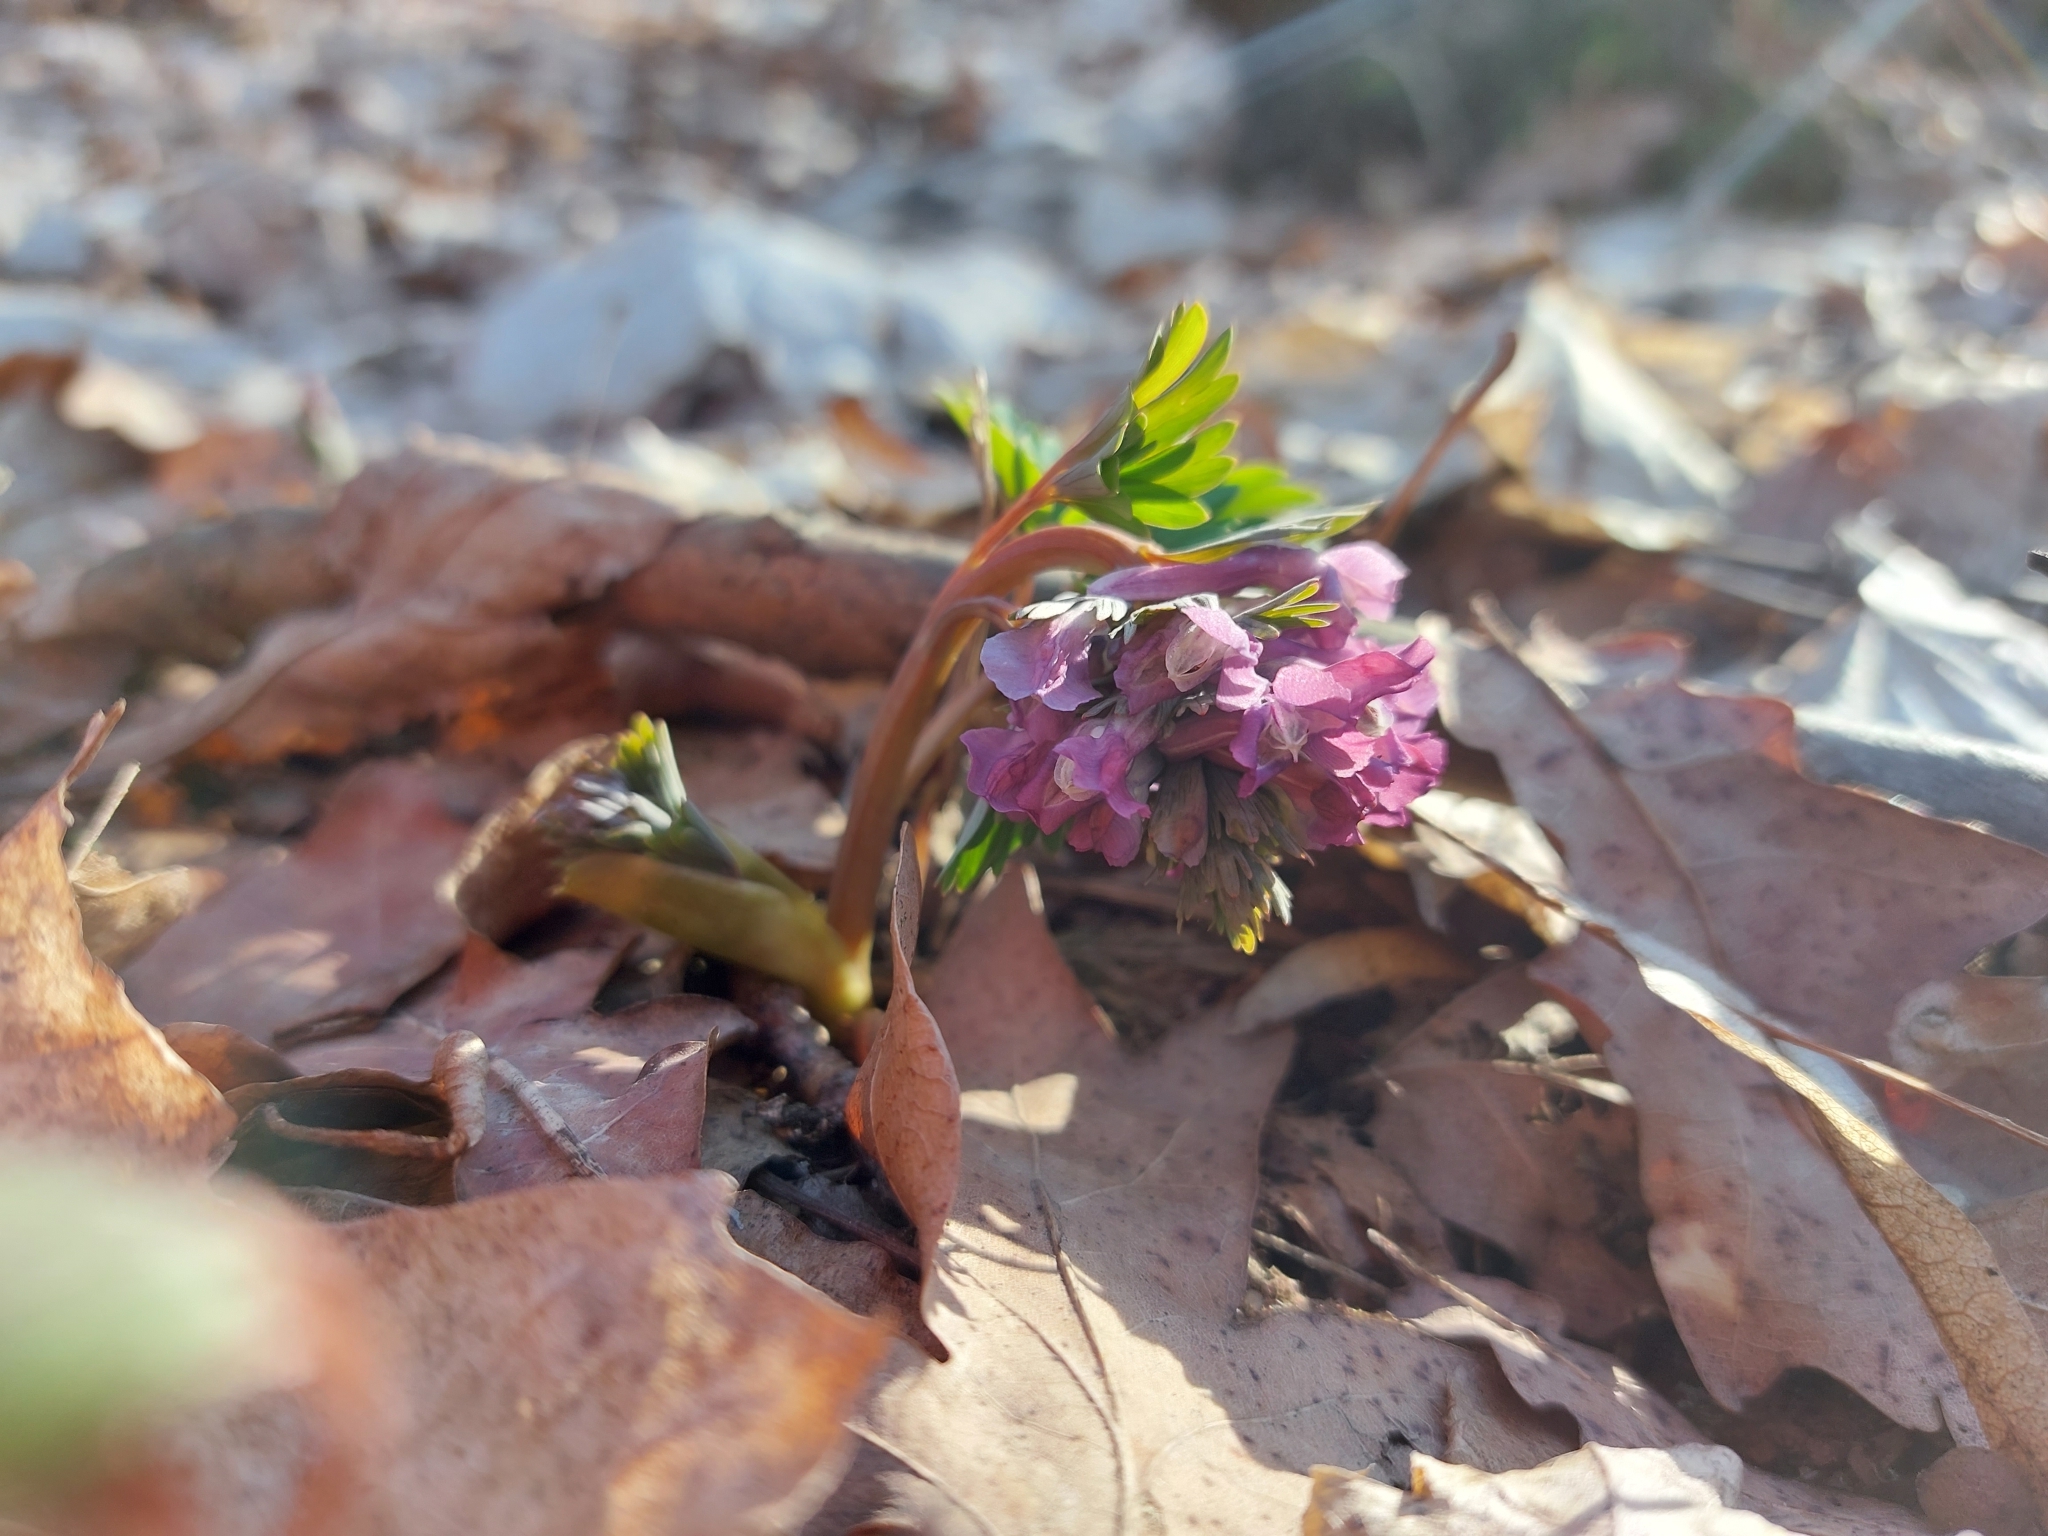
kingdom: Plantae
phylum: Tracheophyta
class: Magnoliopsida
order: Ranunculales
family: Papaveraceae
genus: Corydalis
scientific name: Corydalis solida
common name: Bird-in-a-bush
